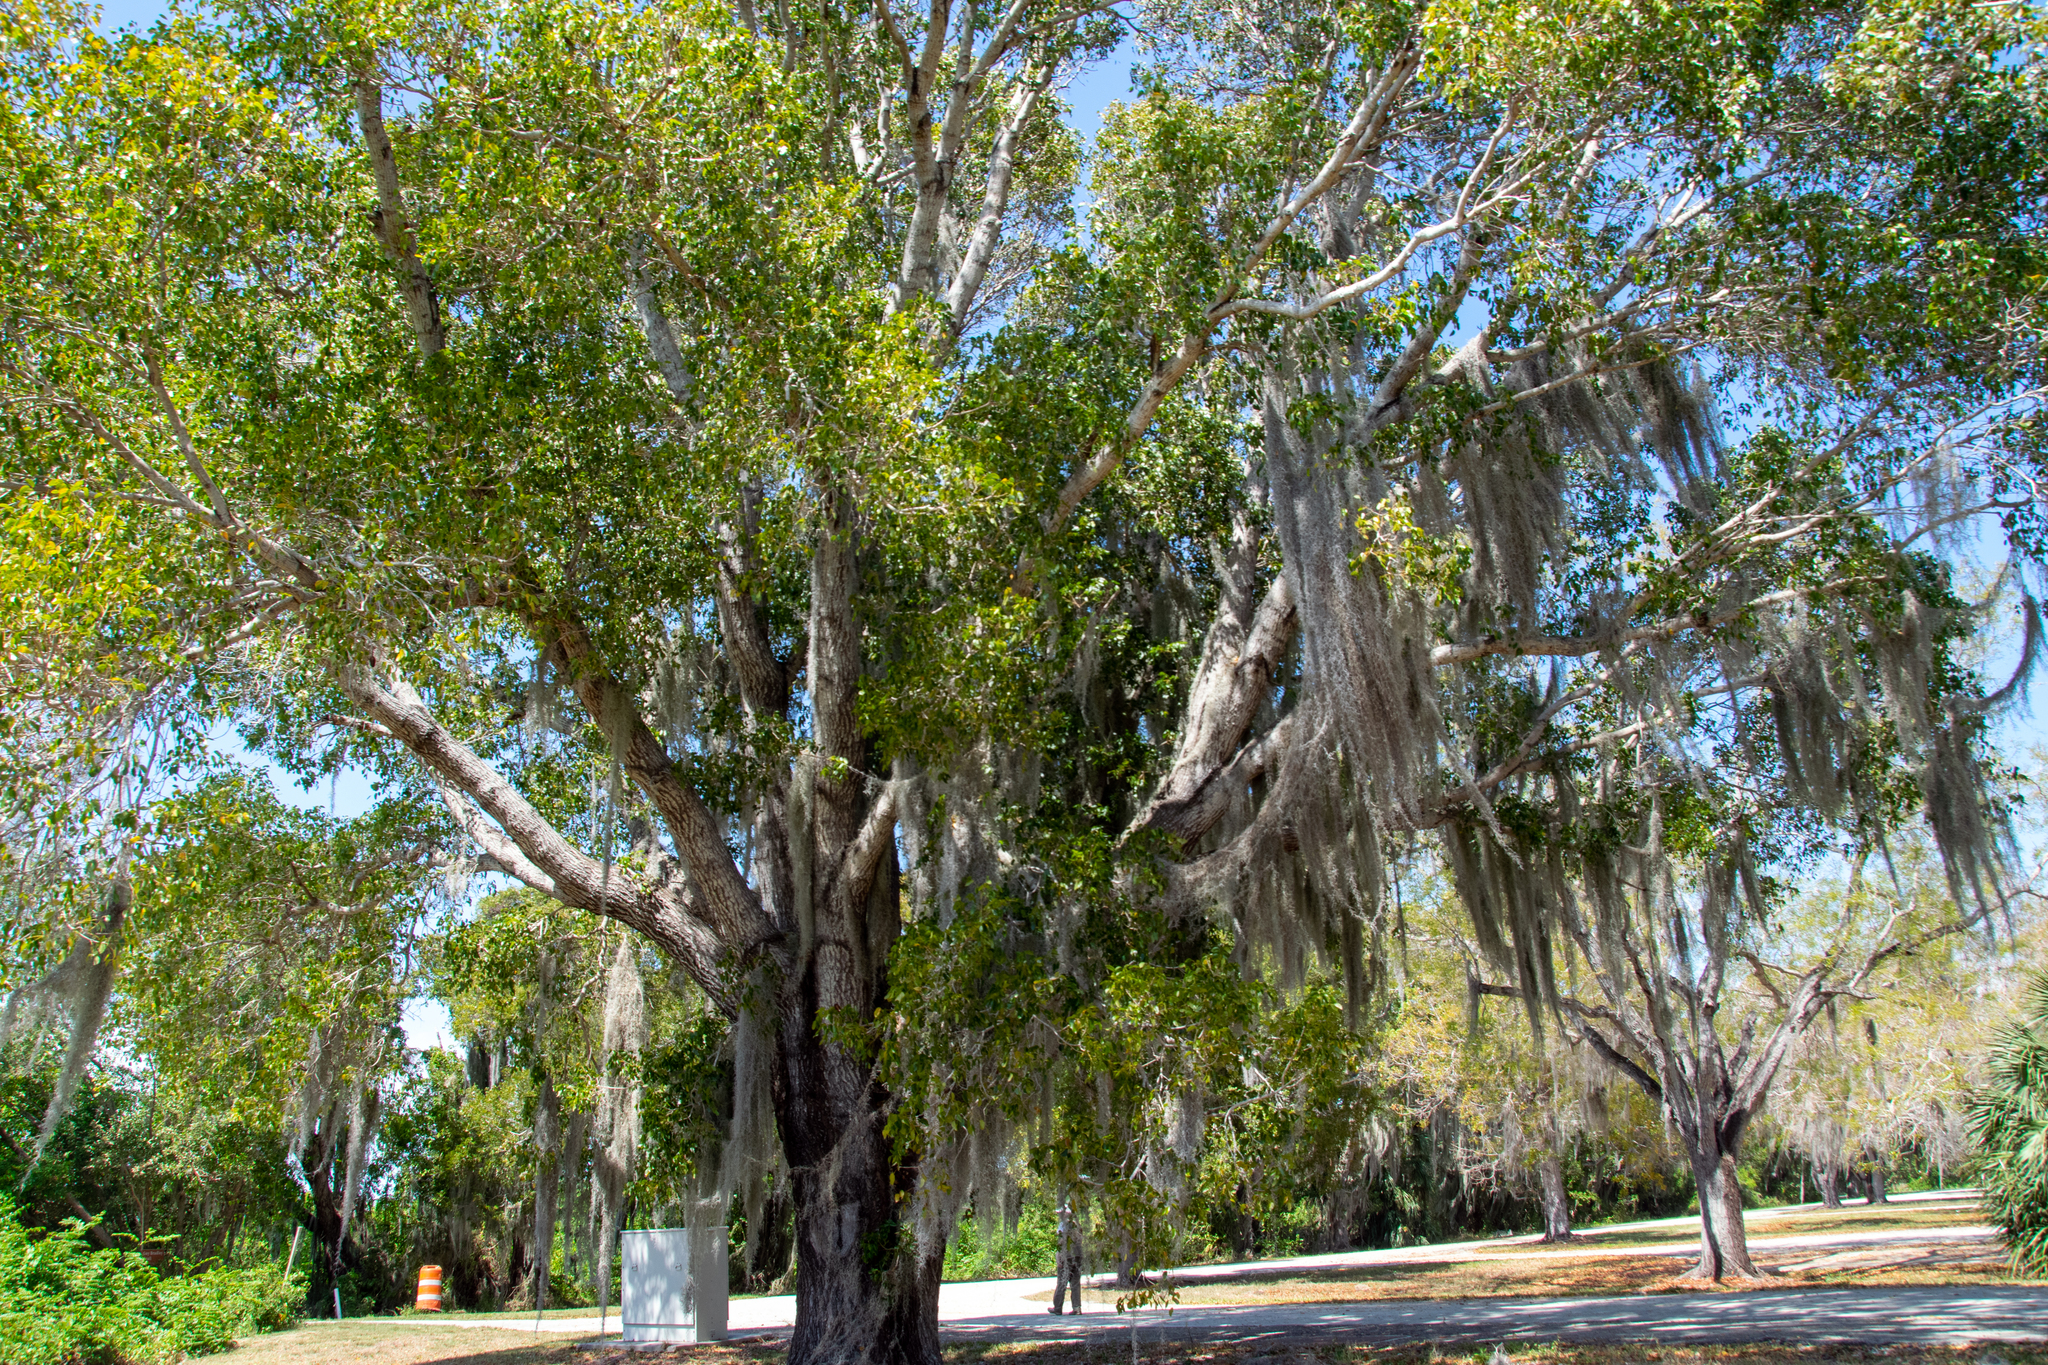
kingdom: Plantae
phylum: Tracheophyta
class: Liliopsida
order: Poales
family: Bromeliaceae
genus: Tillandsia
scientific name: Tillandsia usneoides
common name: Spanish moss
